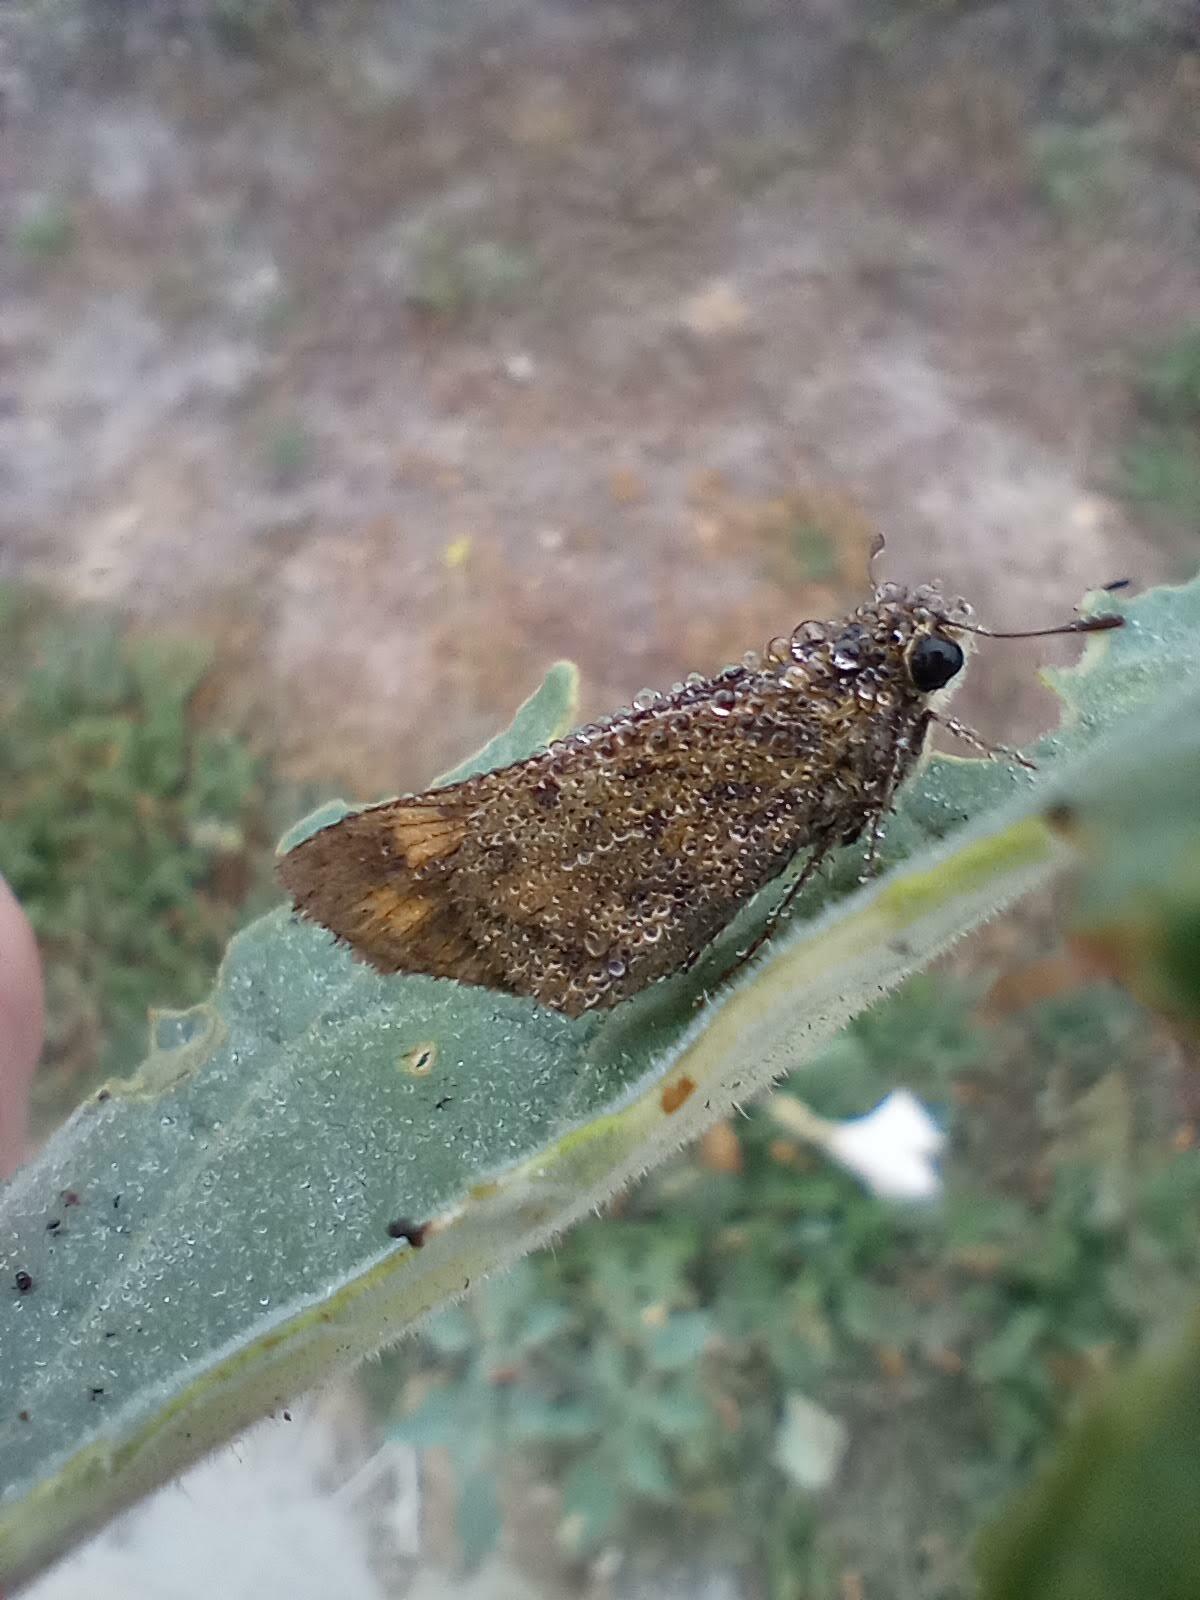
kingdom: Animalia
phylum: Arthropoda
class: Insecta
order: Lepidoptera
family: Hesperiidae
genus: Hylephila
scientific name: Hylephila phyleus
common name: Fiery skipper
